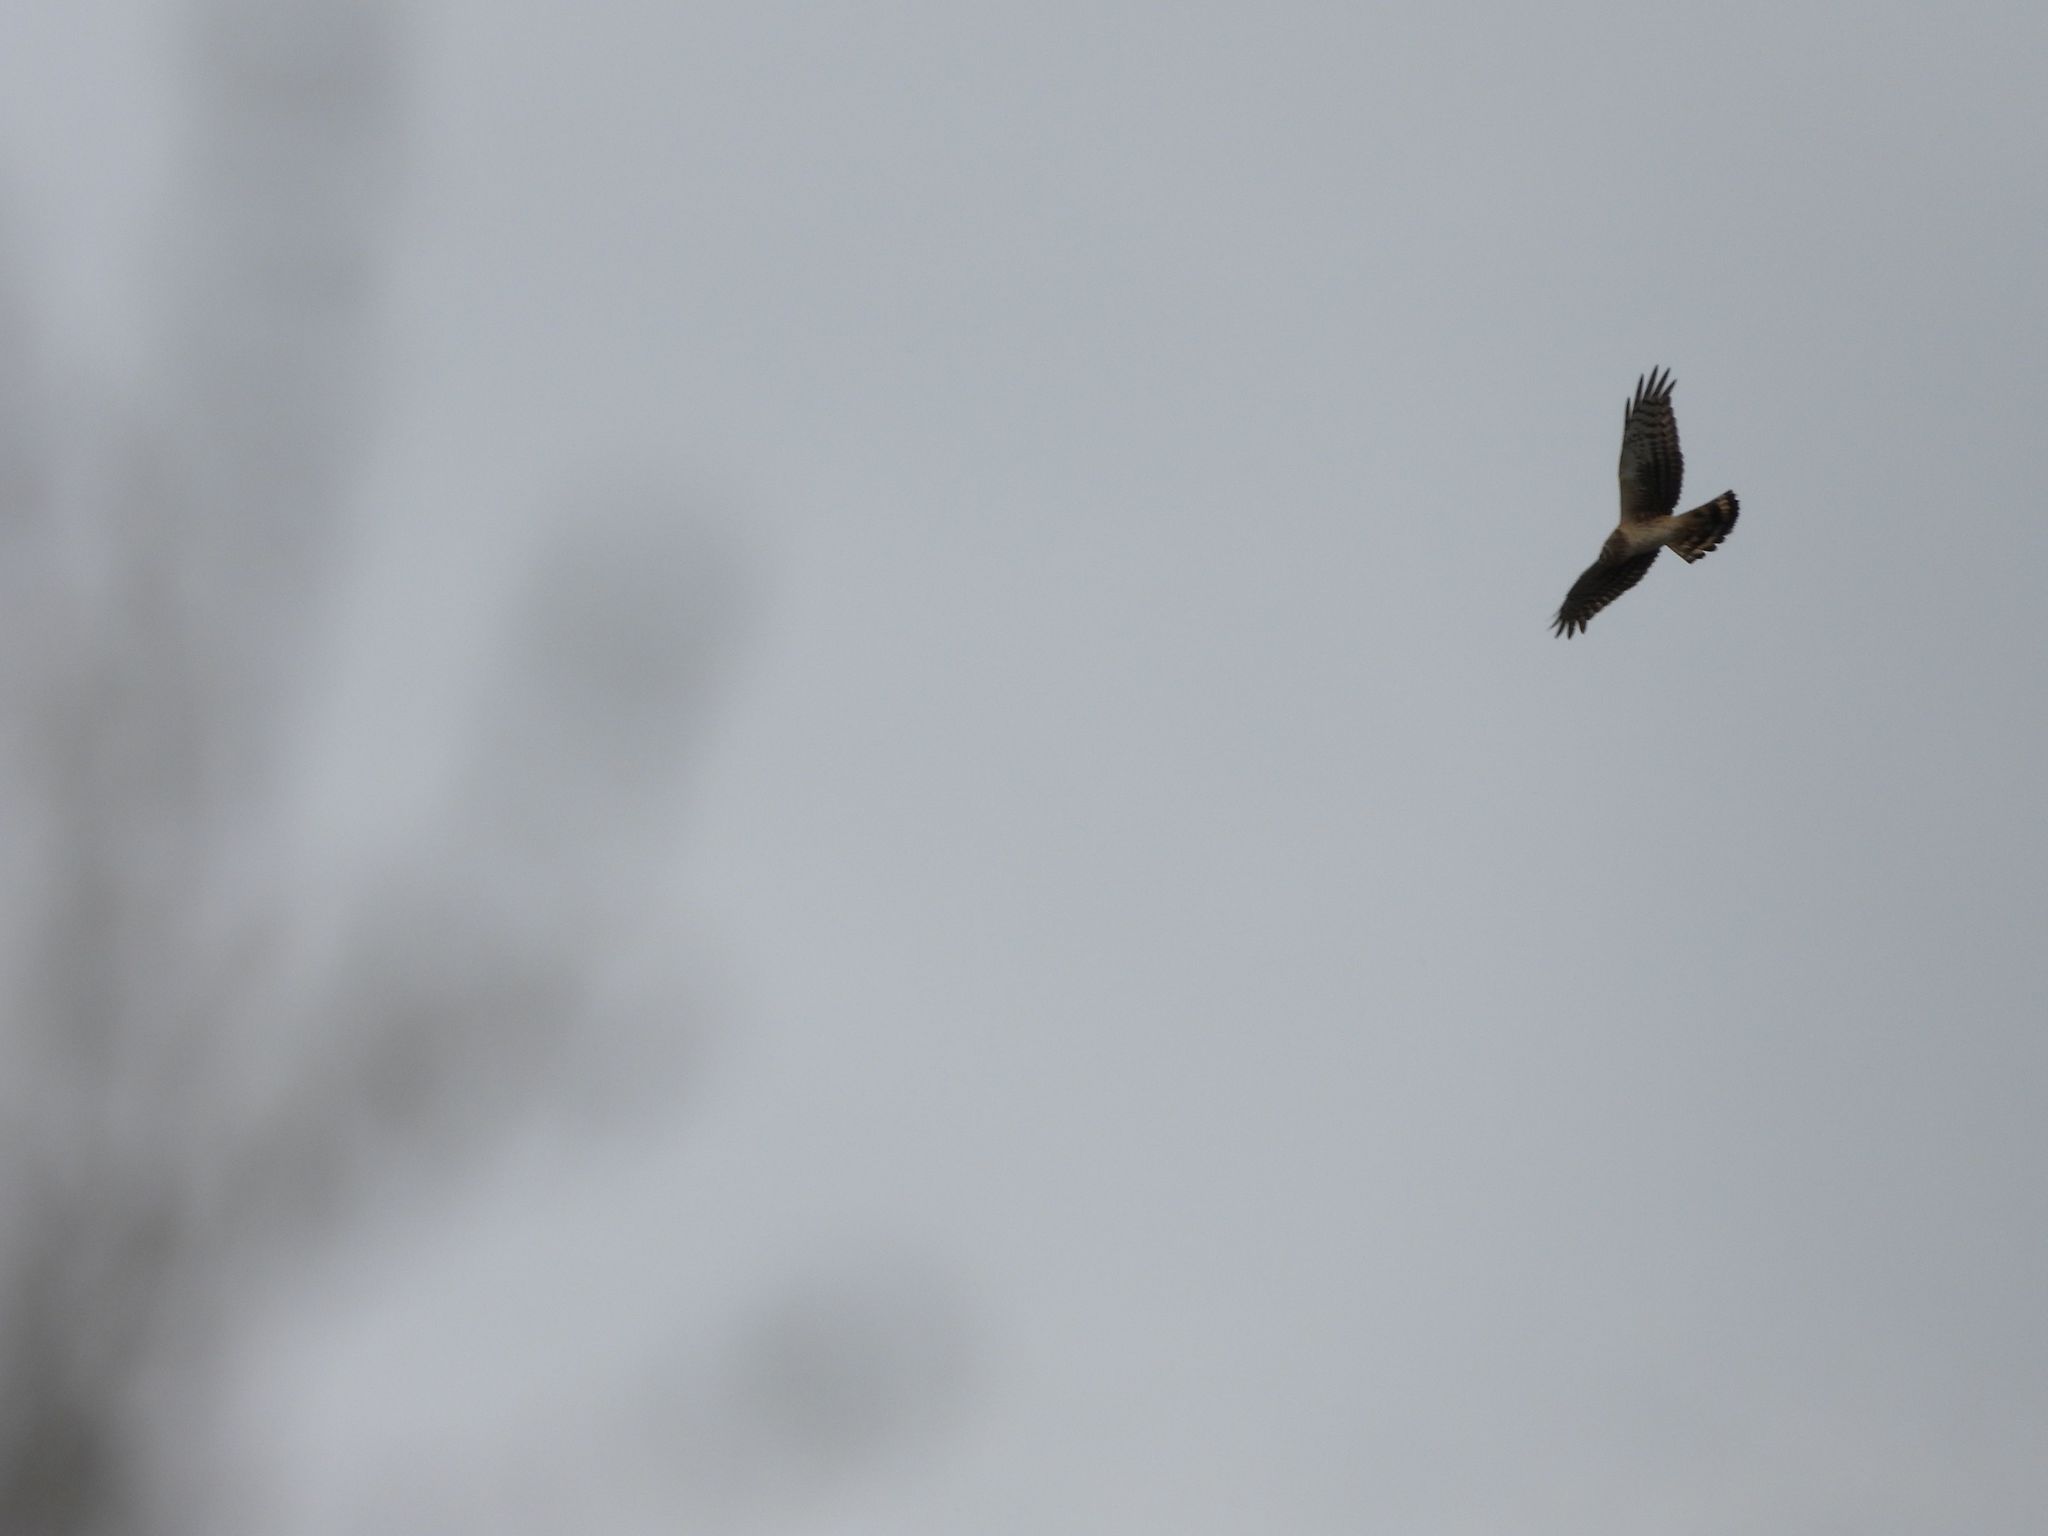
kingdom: Animalia
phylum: Chordata
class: Aves
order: Accipitriformes
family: Accipitridae
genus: Circus
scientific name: Circus cyaneus
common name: Hen harrier
